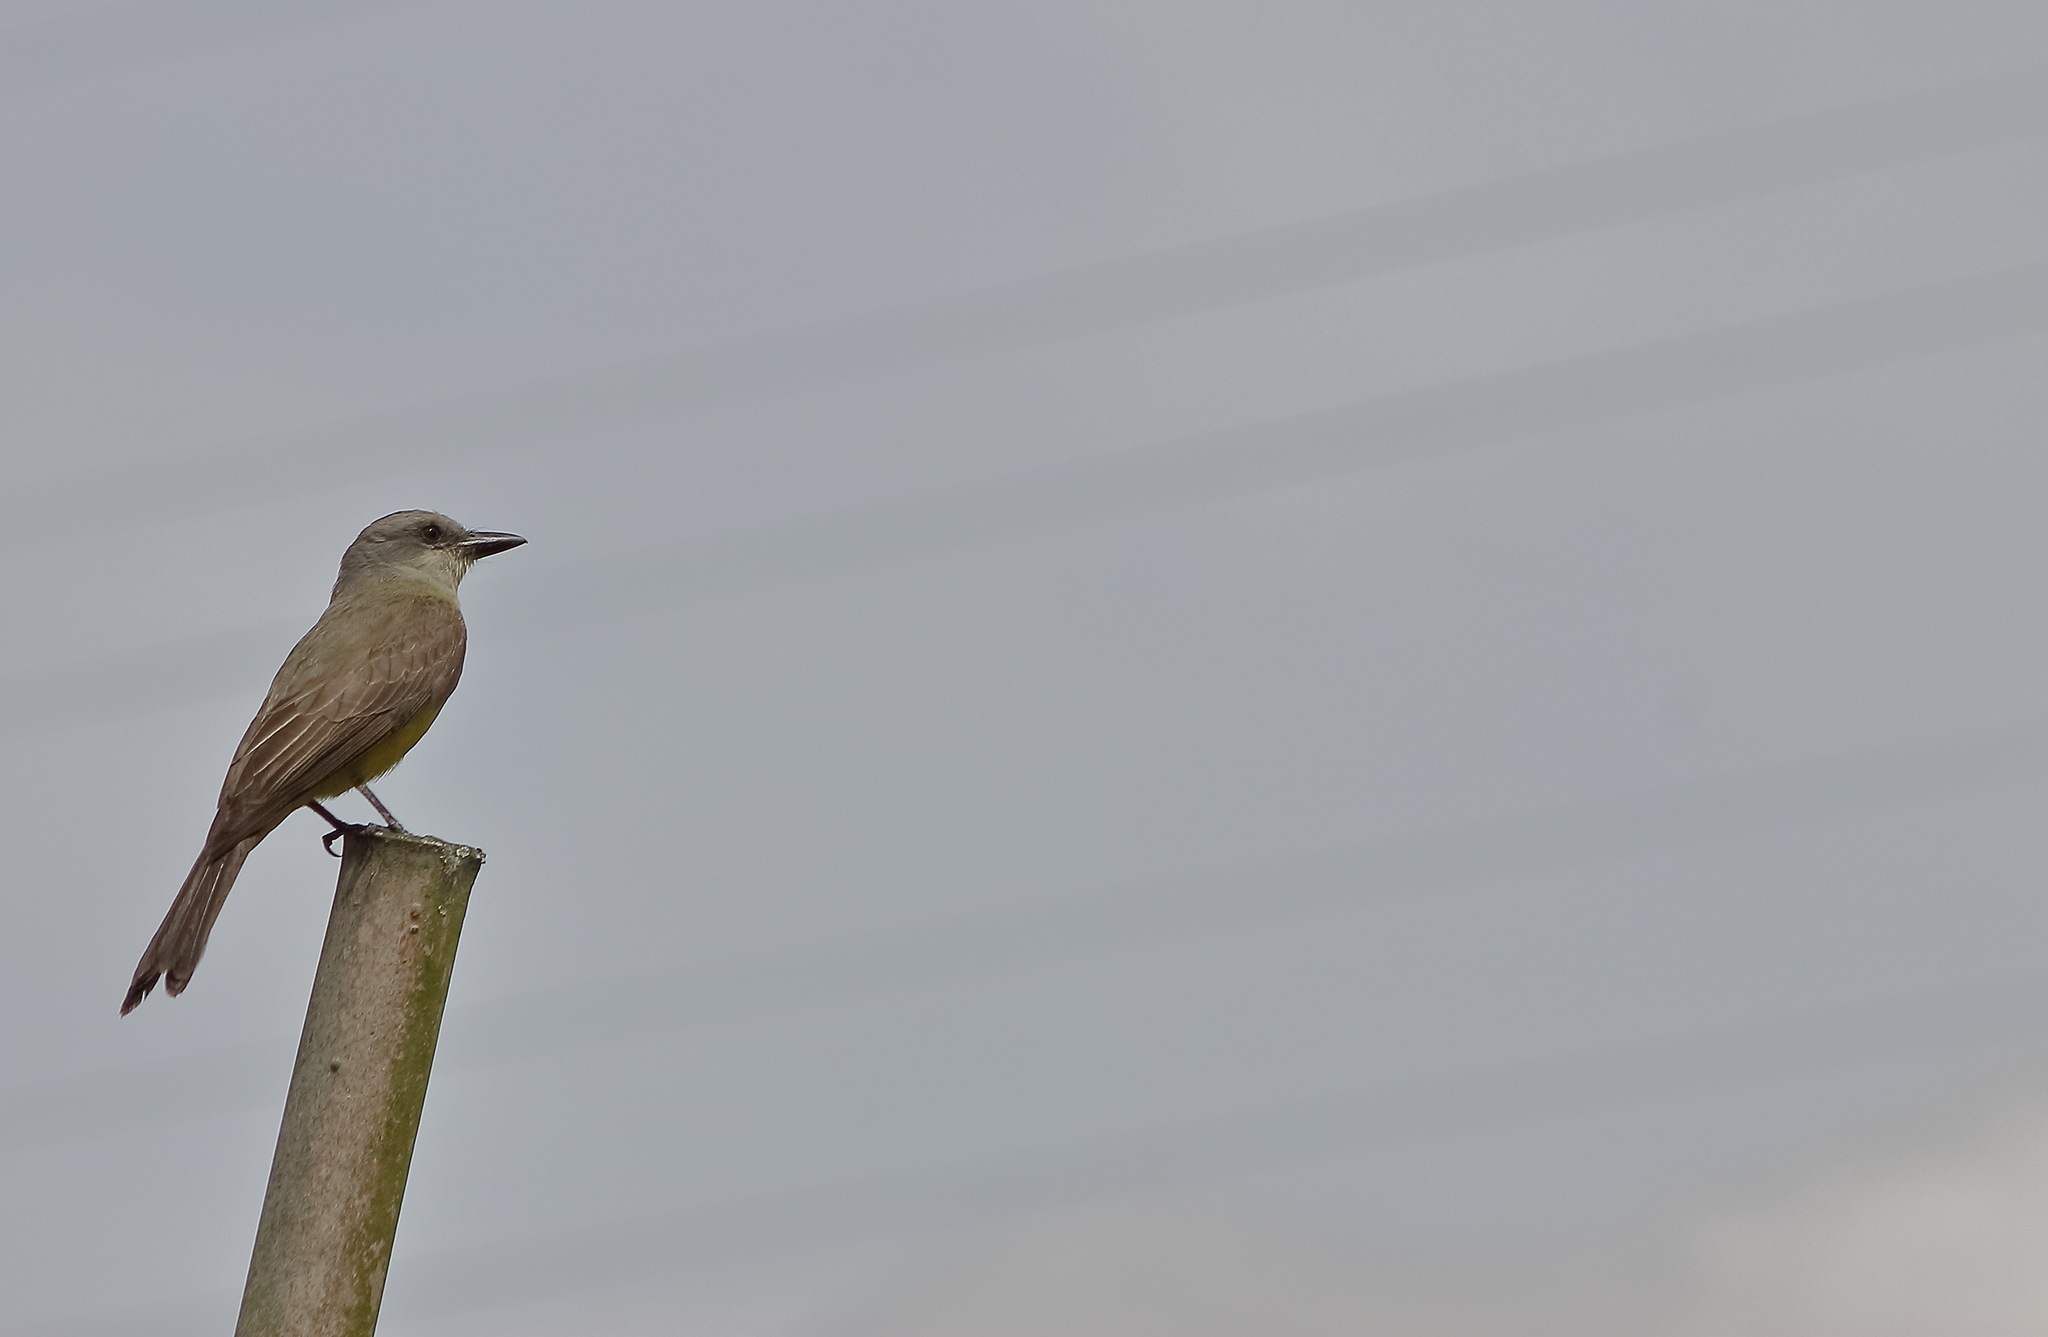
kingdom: Animalia
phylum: Chordata
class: Aves
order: Passeriformes
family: Tyrannidae
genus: Tyrannus
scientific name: Tyrannus melancholicus
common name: Tropical kingbird
